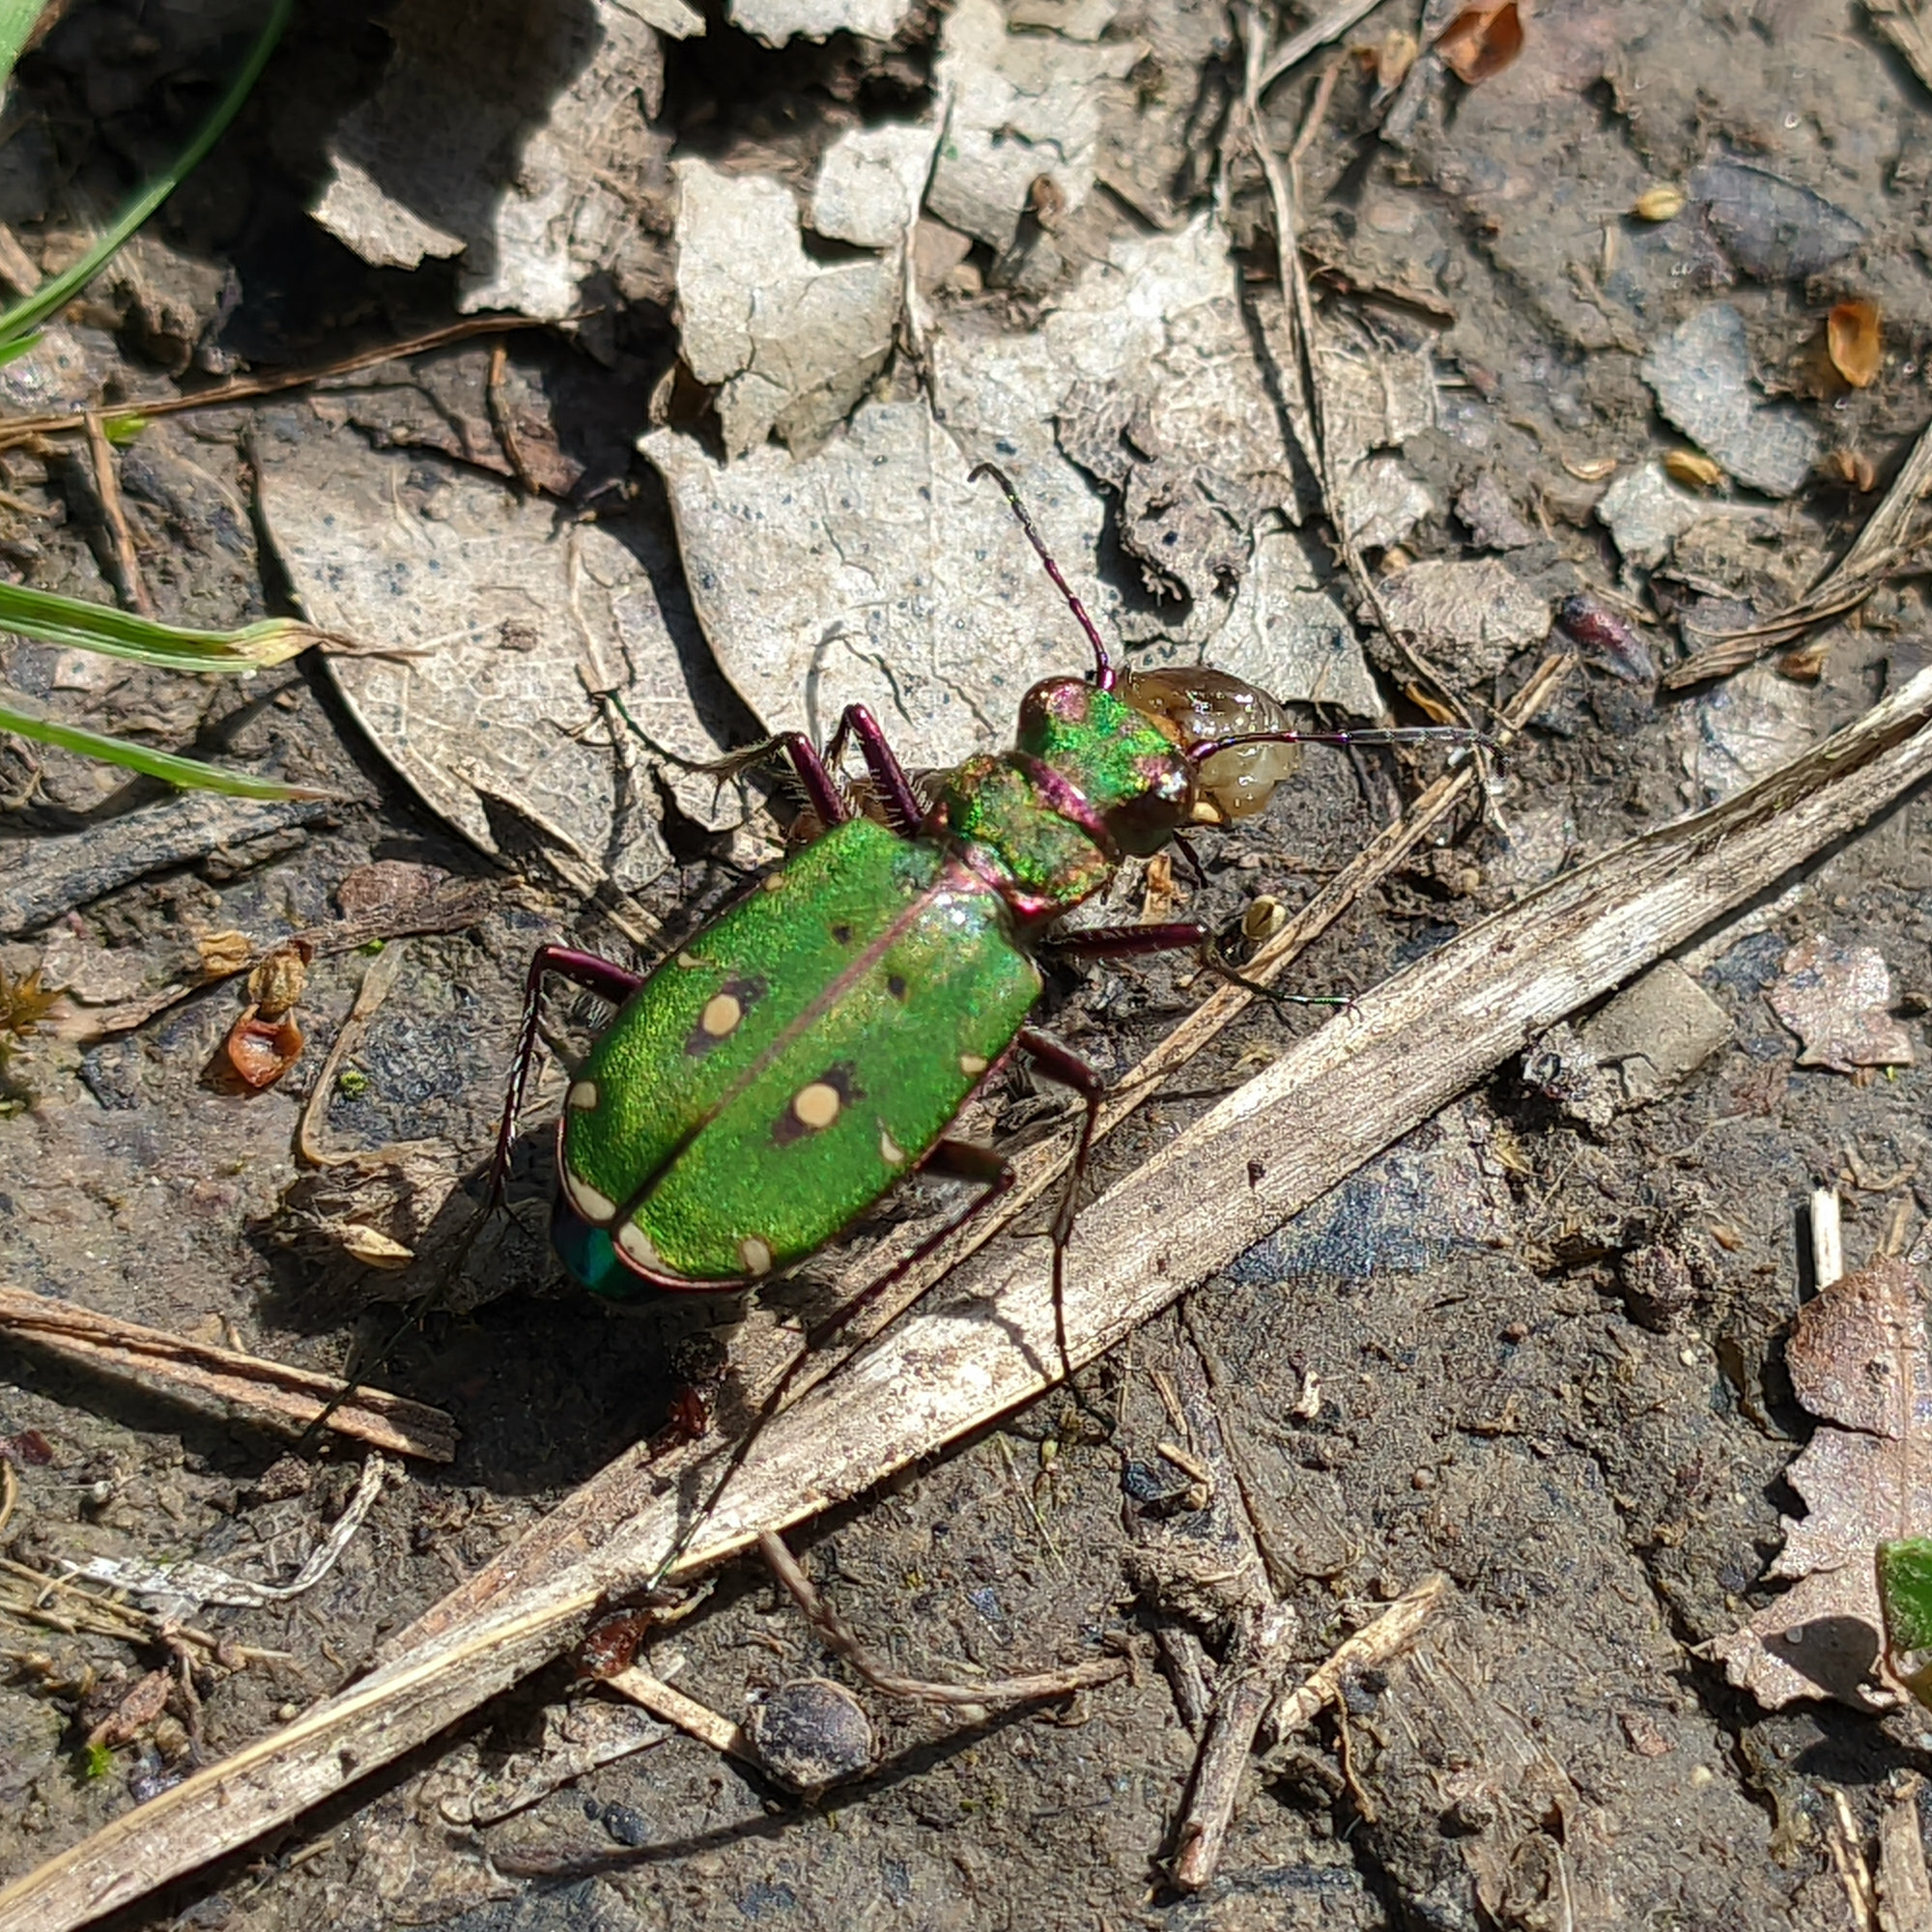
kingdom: Animalia
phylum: Arthropoda
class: Insecta
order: Coleoptera
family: Carabidae
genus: Cicindela
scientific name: Cicindela campestris
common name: Common tiger beetle
